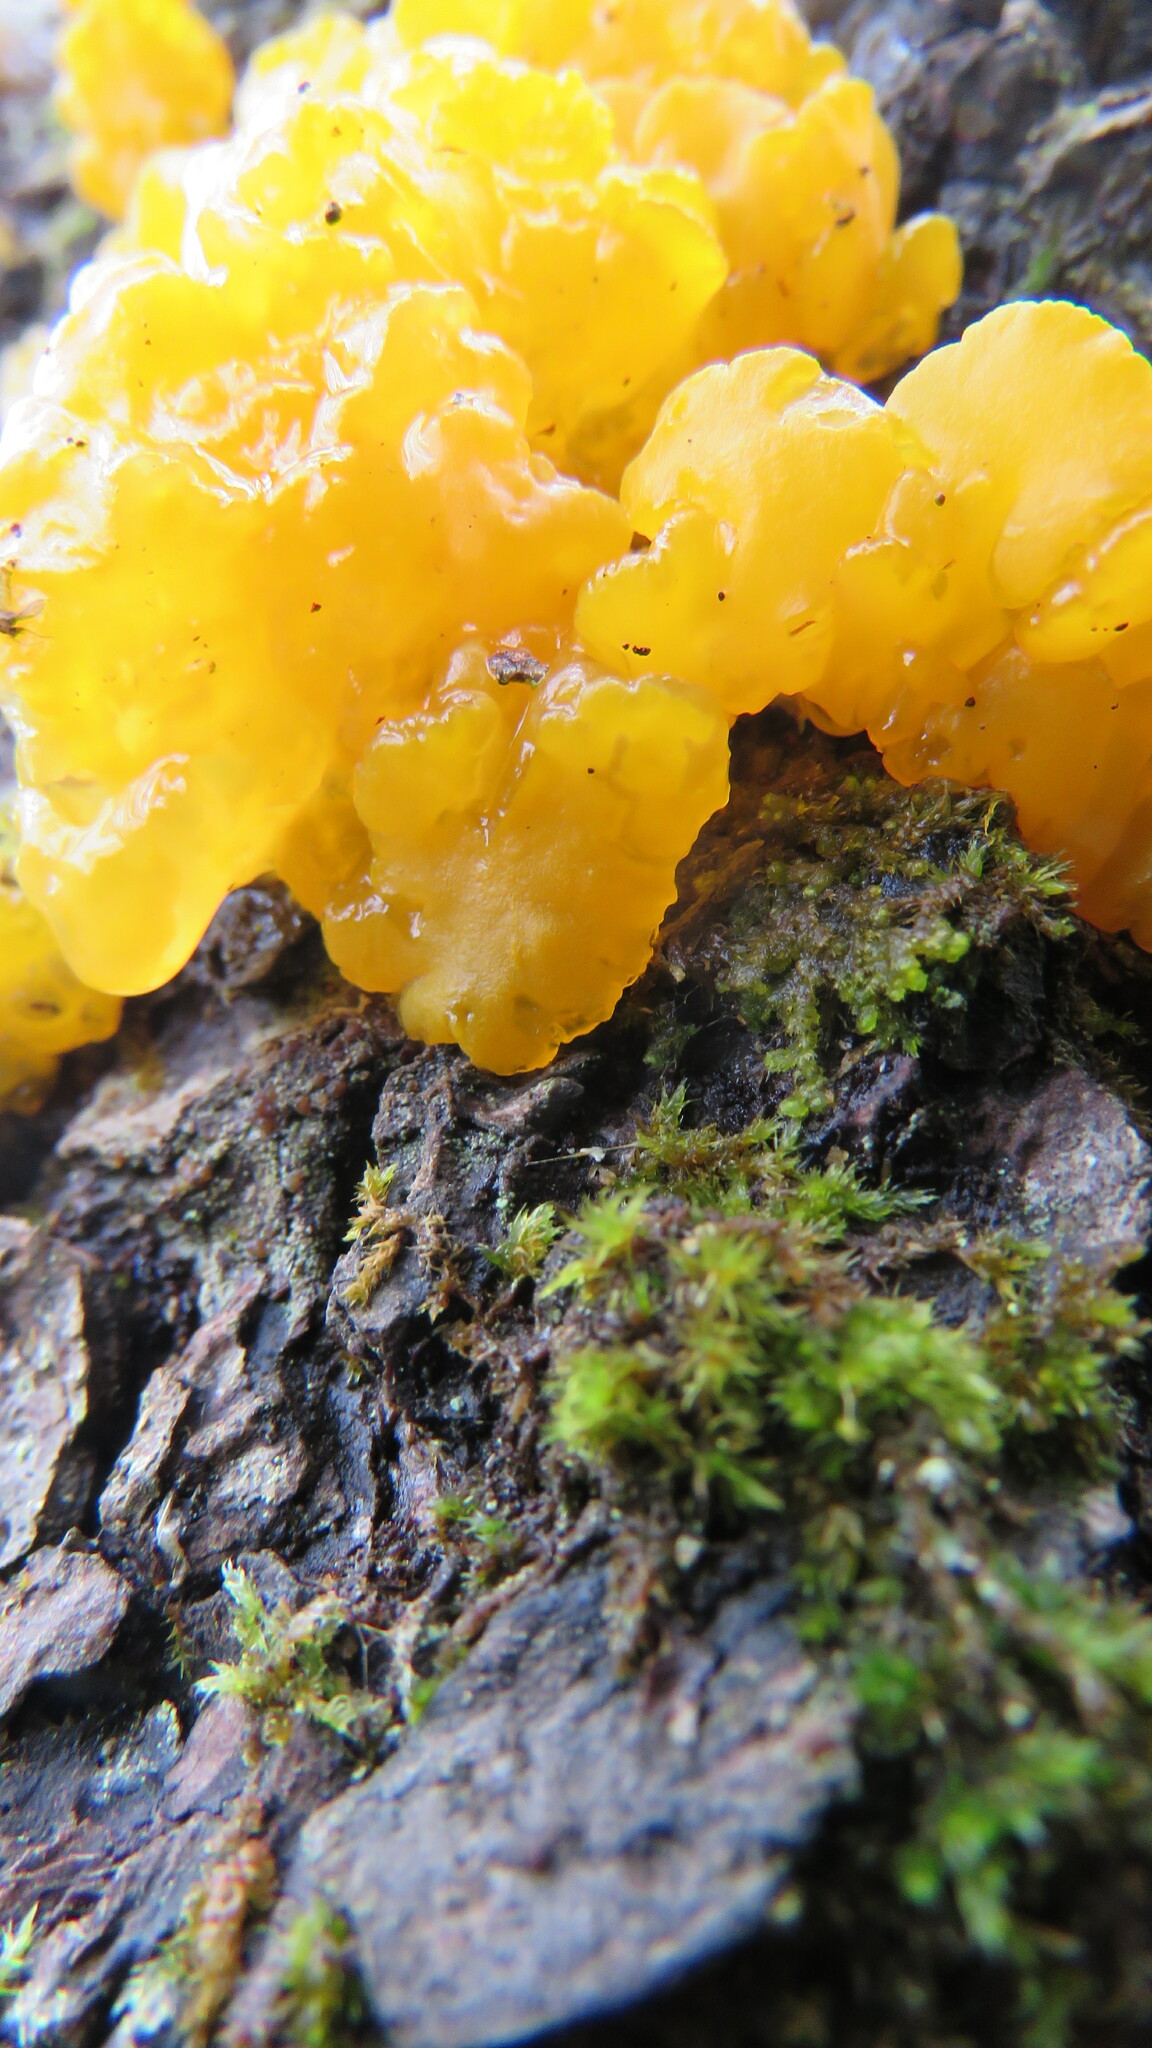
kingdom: Fungi
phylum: Basidiomycota
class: Dacrymycetes
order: Dacrymycetales
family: Dacrymycetaceae
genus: Dacrymyces
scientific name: Dacrymyces chrysospermus
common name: Orange jelly spot
